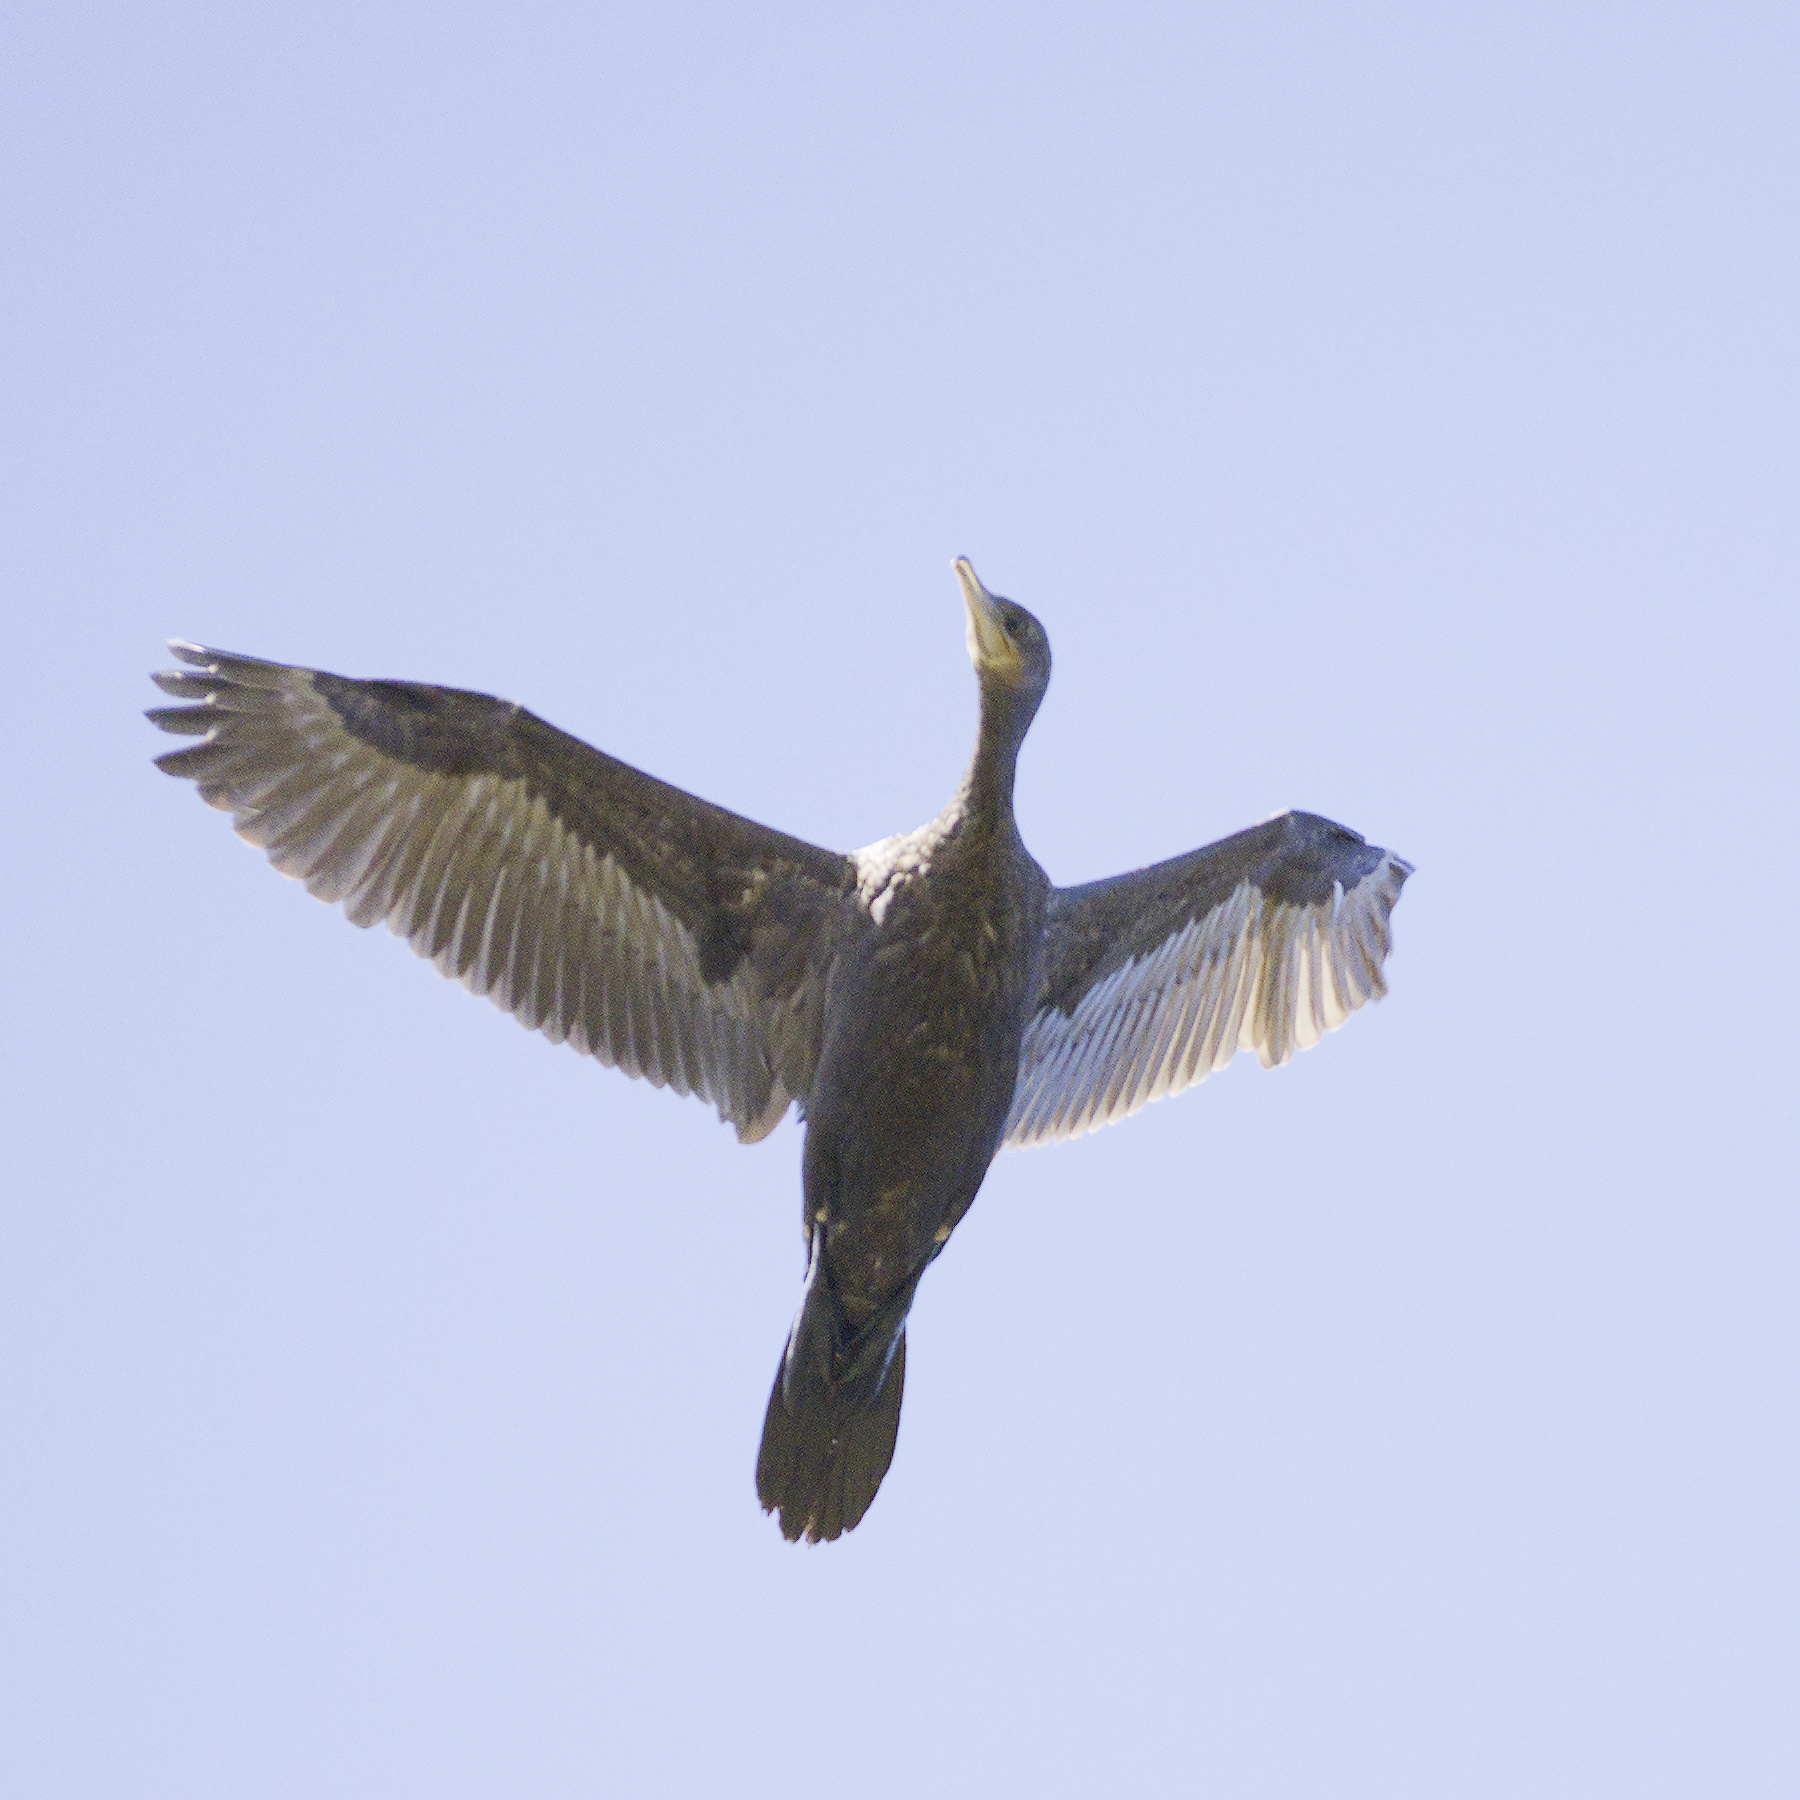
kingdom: Animalia
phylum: Chordata
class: Aves
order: Suliformes
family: Phalacrocoracidae
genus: Phalacrocorax
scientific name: Phalacrocorax sulcirostris
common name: Little black cormorant
